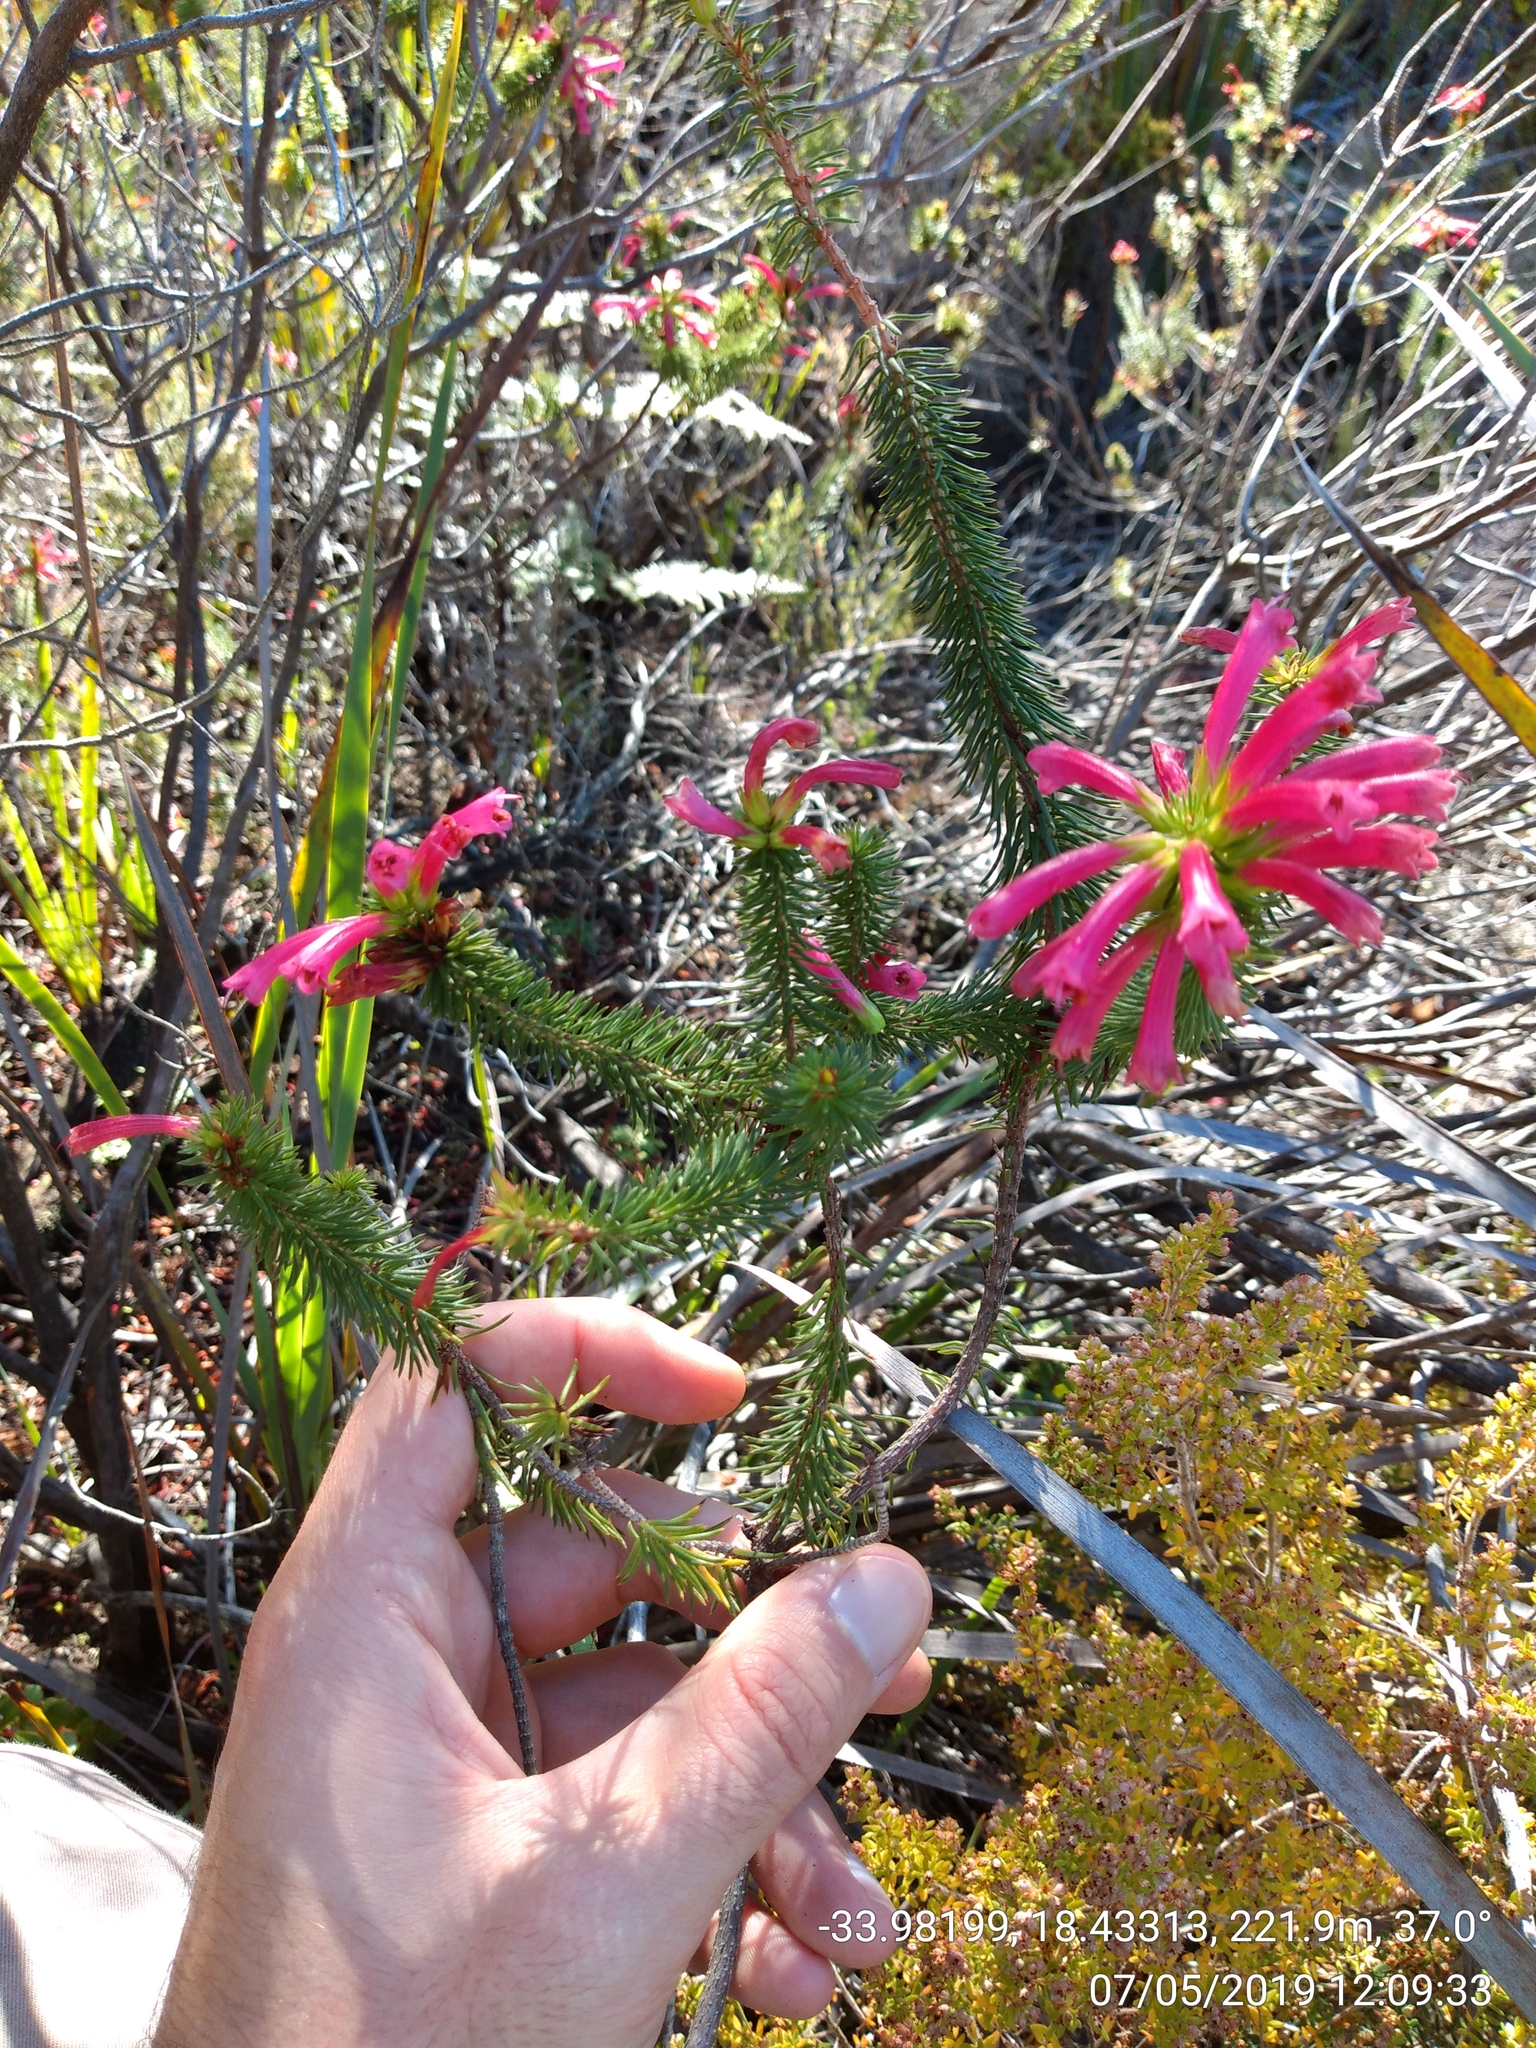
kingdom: Plantae
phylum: Tracheophyta
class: Magnoliopsida
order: Ericales
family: Ericaceae
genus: Erica
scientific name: Erica abietina
